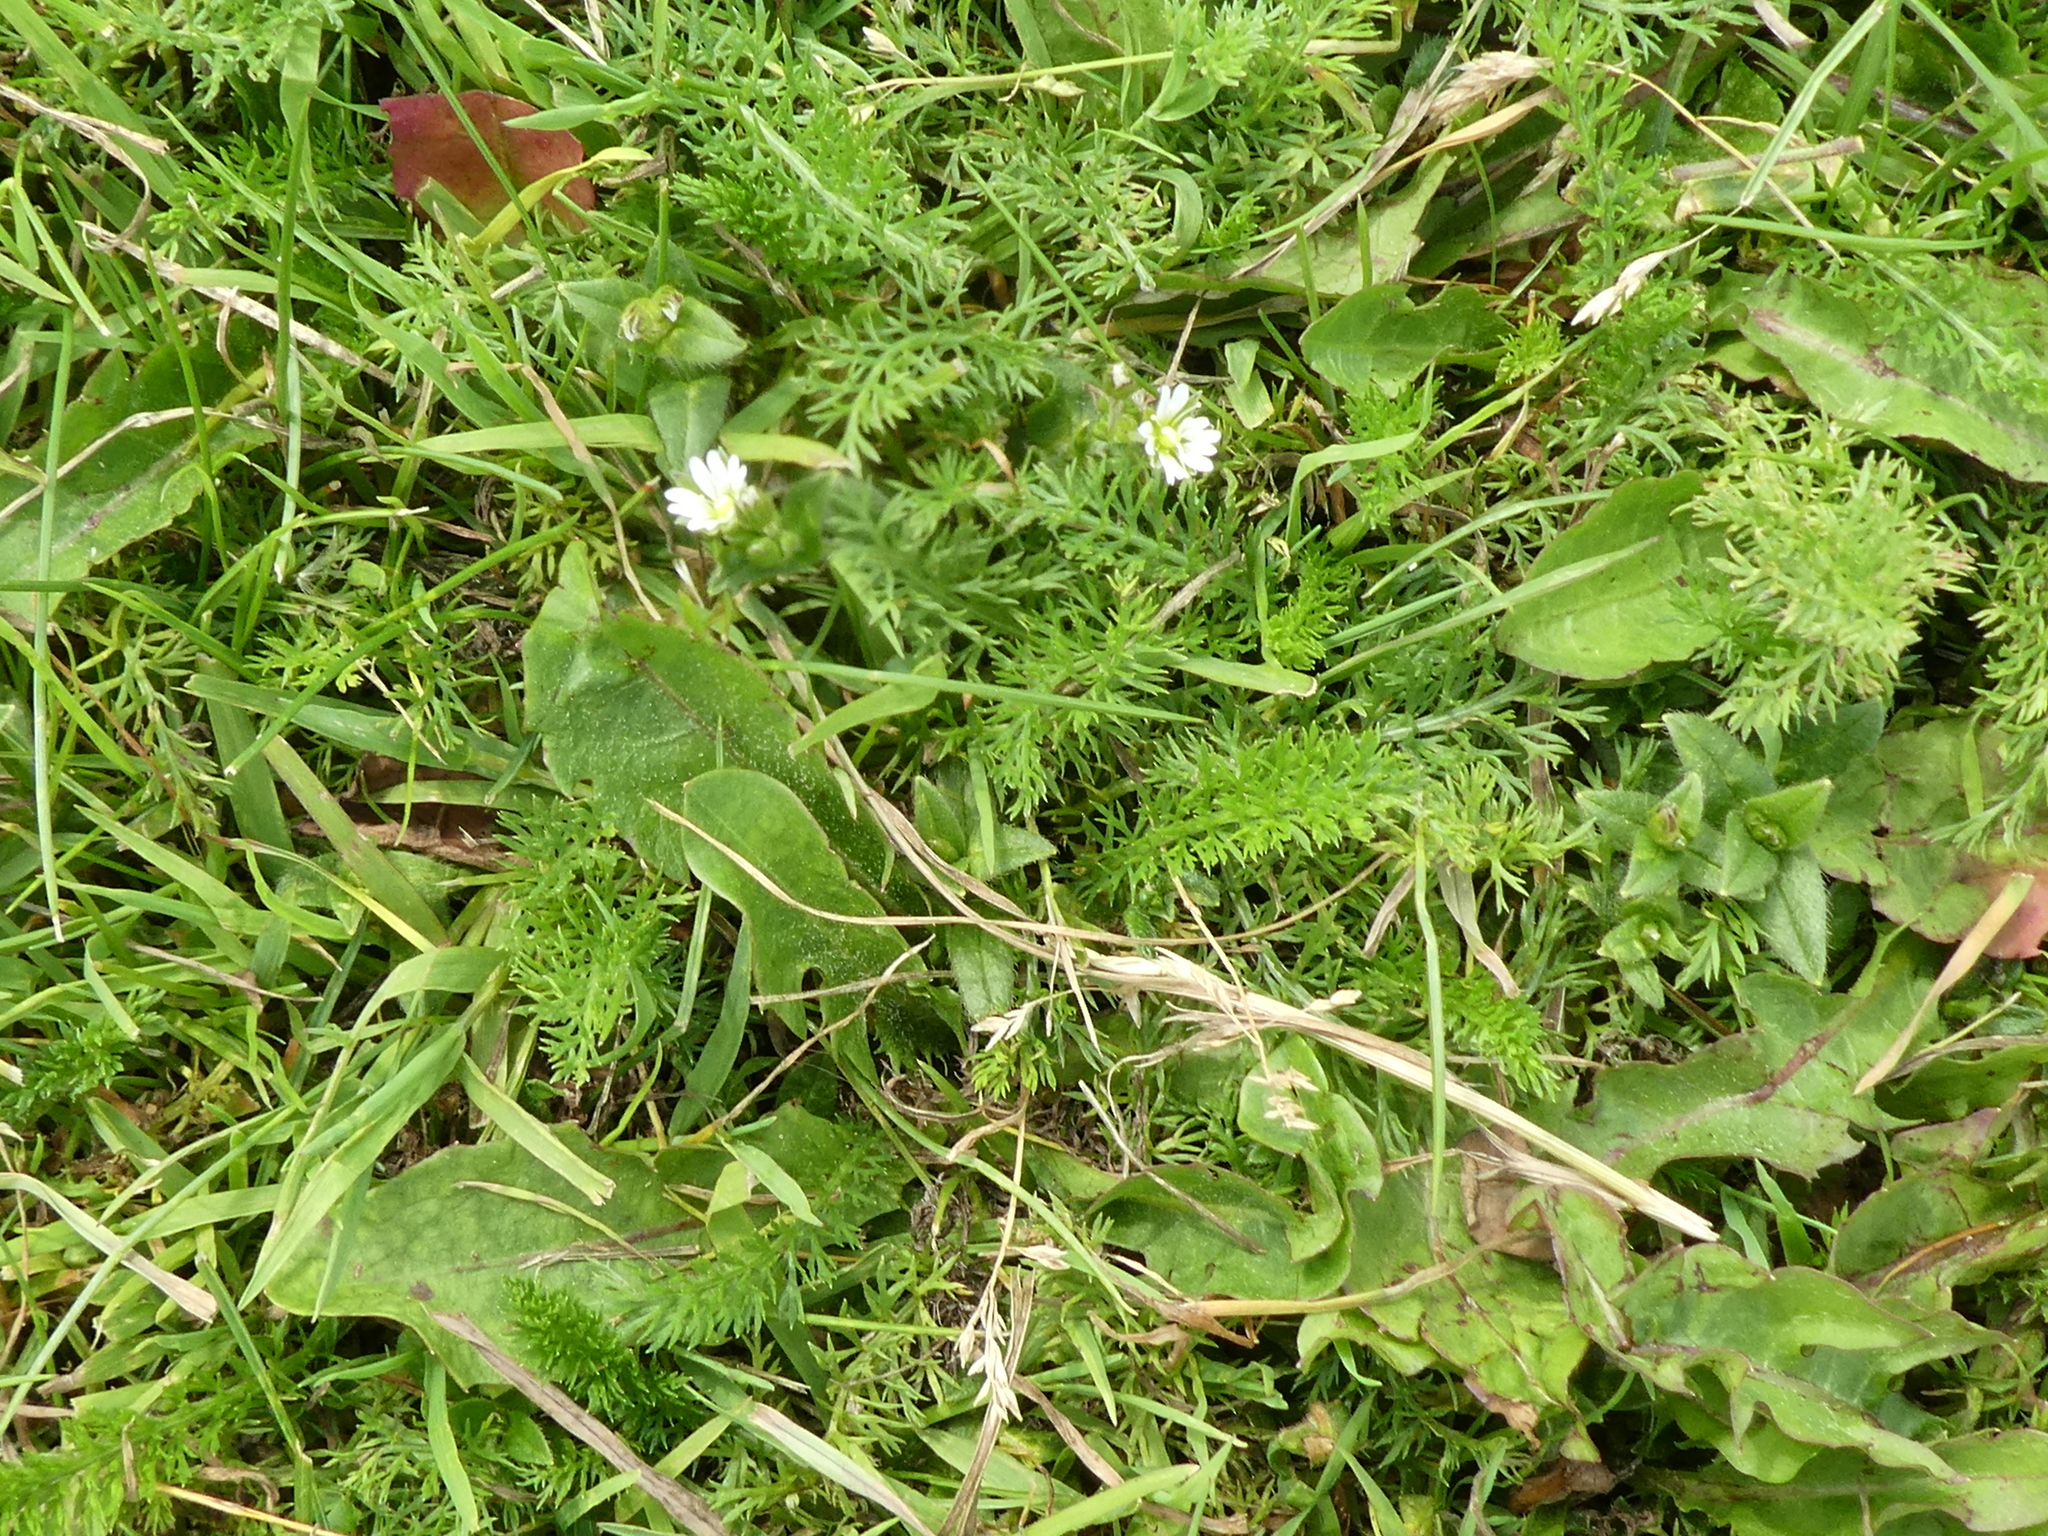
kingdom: Plantae
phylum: Tracheophyta
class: Magnoliopsida
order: Caryophyllales
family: Caryophyllaceae
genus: Cerastium
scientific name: Cerastium fontanum
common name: Common mouse-ear
